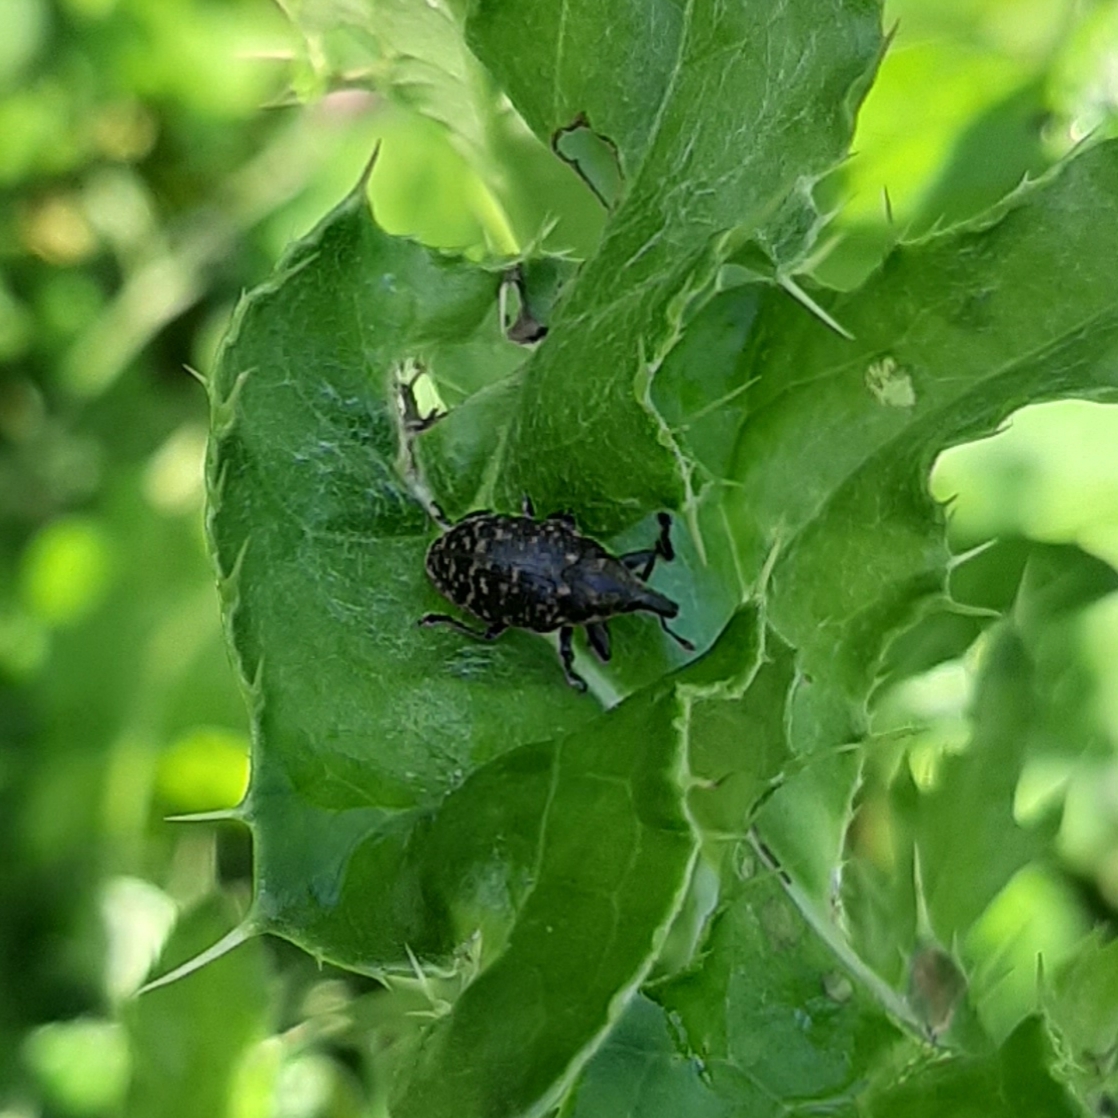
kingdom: Animalia
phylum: Arthropoda
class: Insecta
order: Coleoptera
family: Curculionidae
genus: Larinus
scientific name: Larinus turbinatus
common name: Weevil
